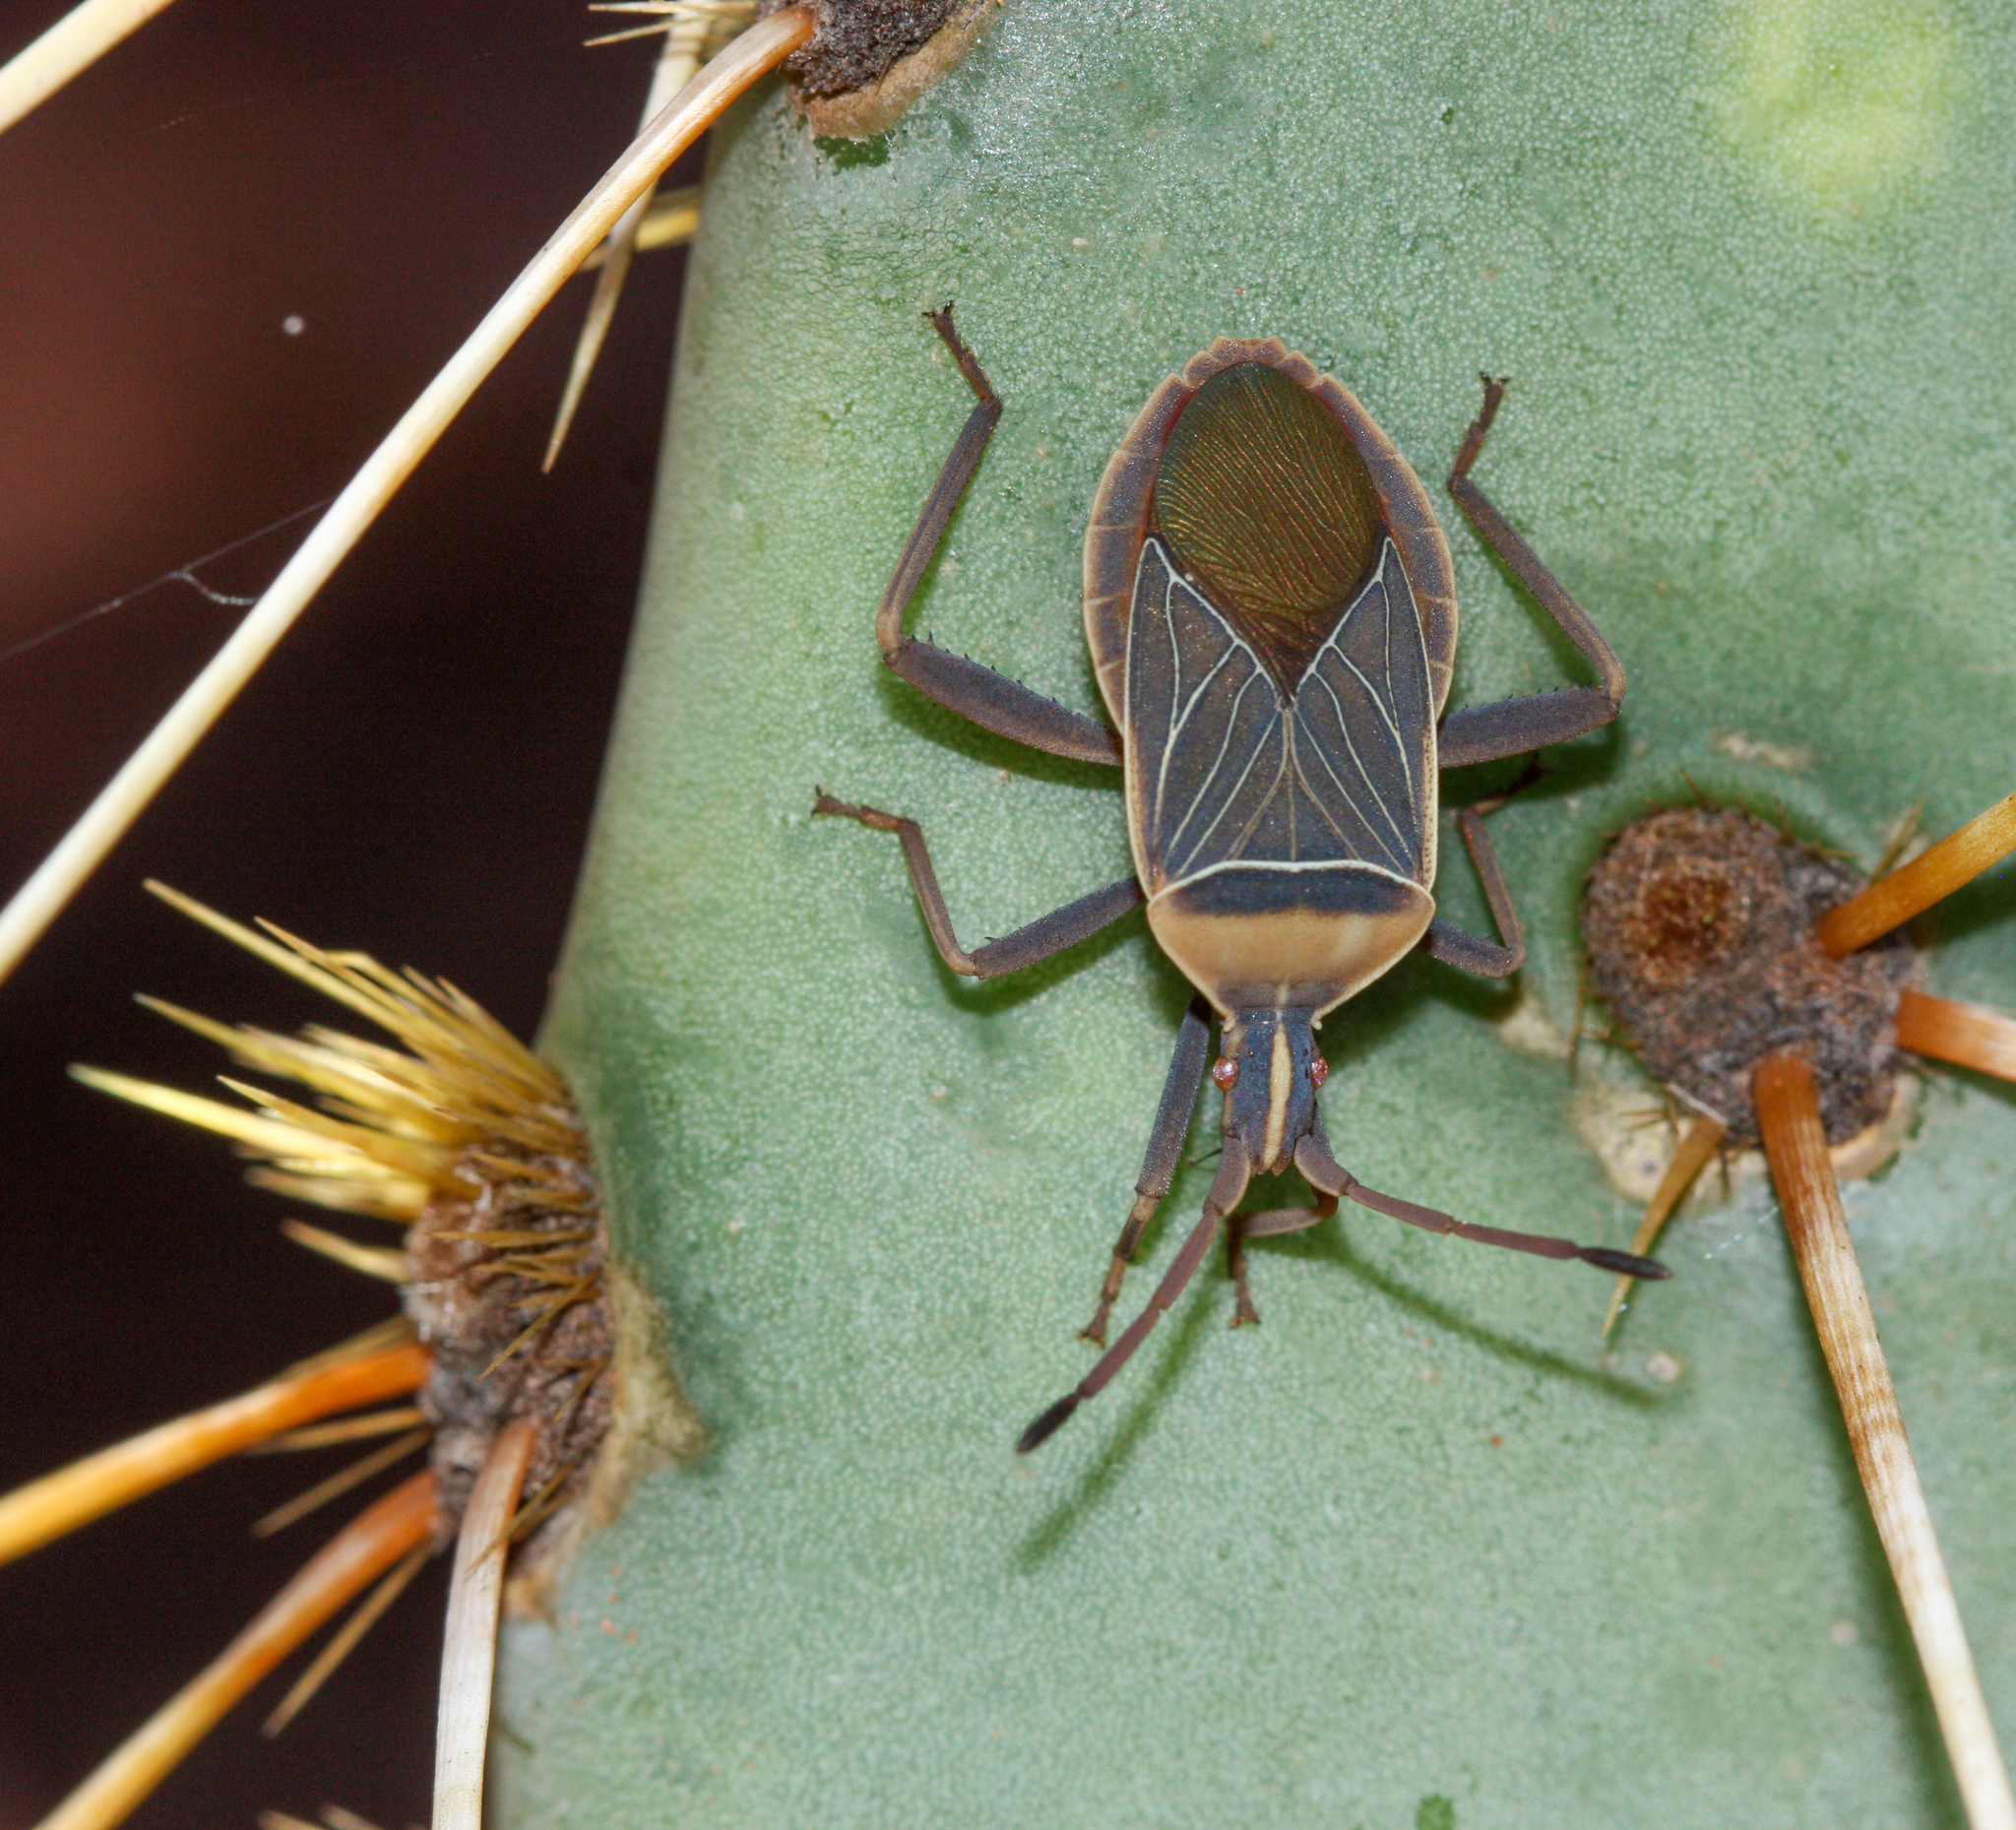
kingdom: Animalia
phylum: Arthropoda
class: Insecta
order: Hemiptera
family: Coreidae
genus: Chelinidea
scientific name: Chelinidea vittiger
